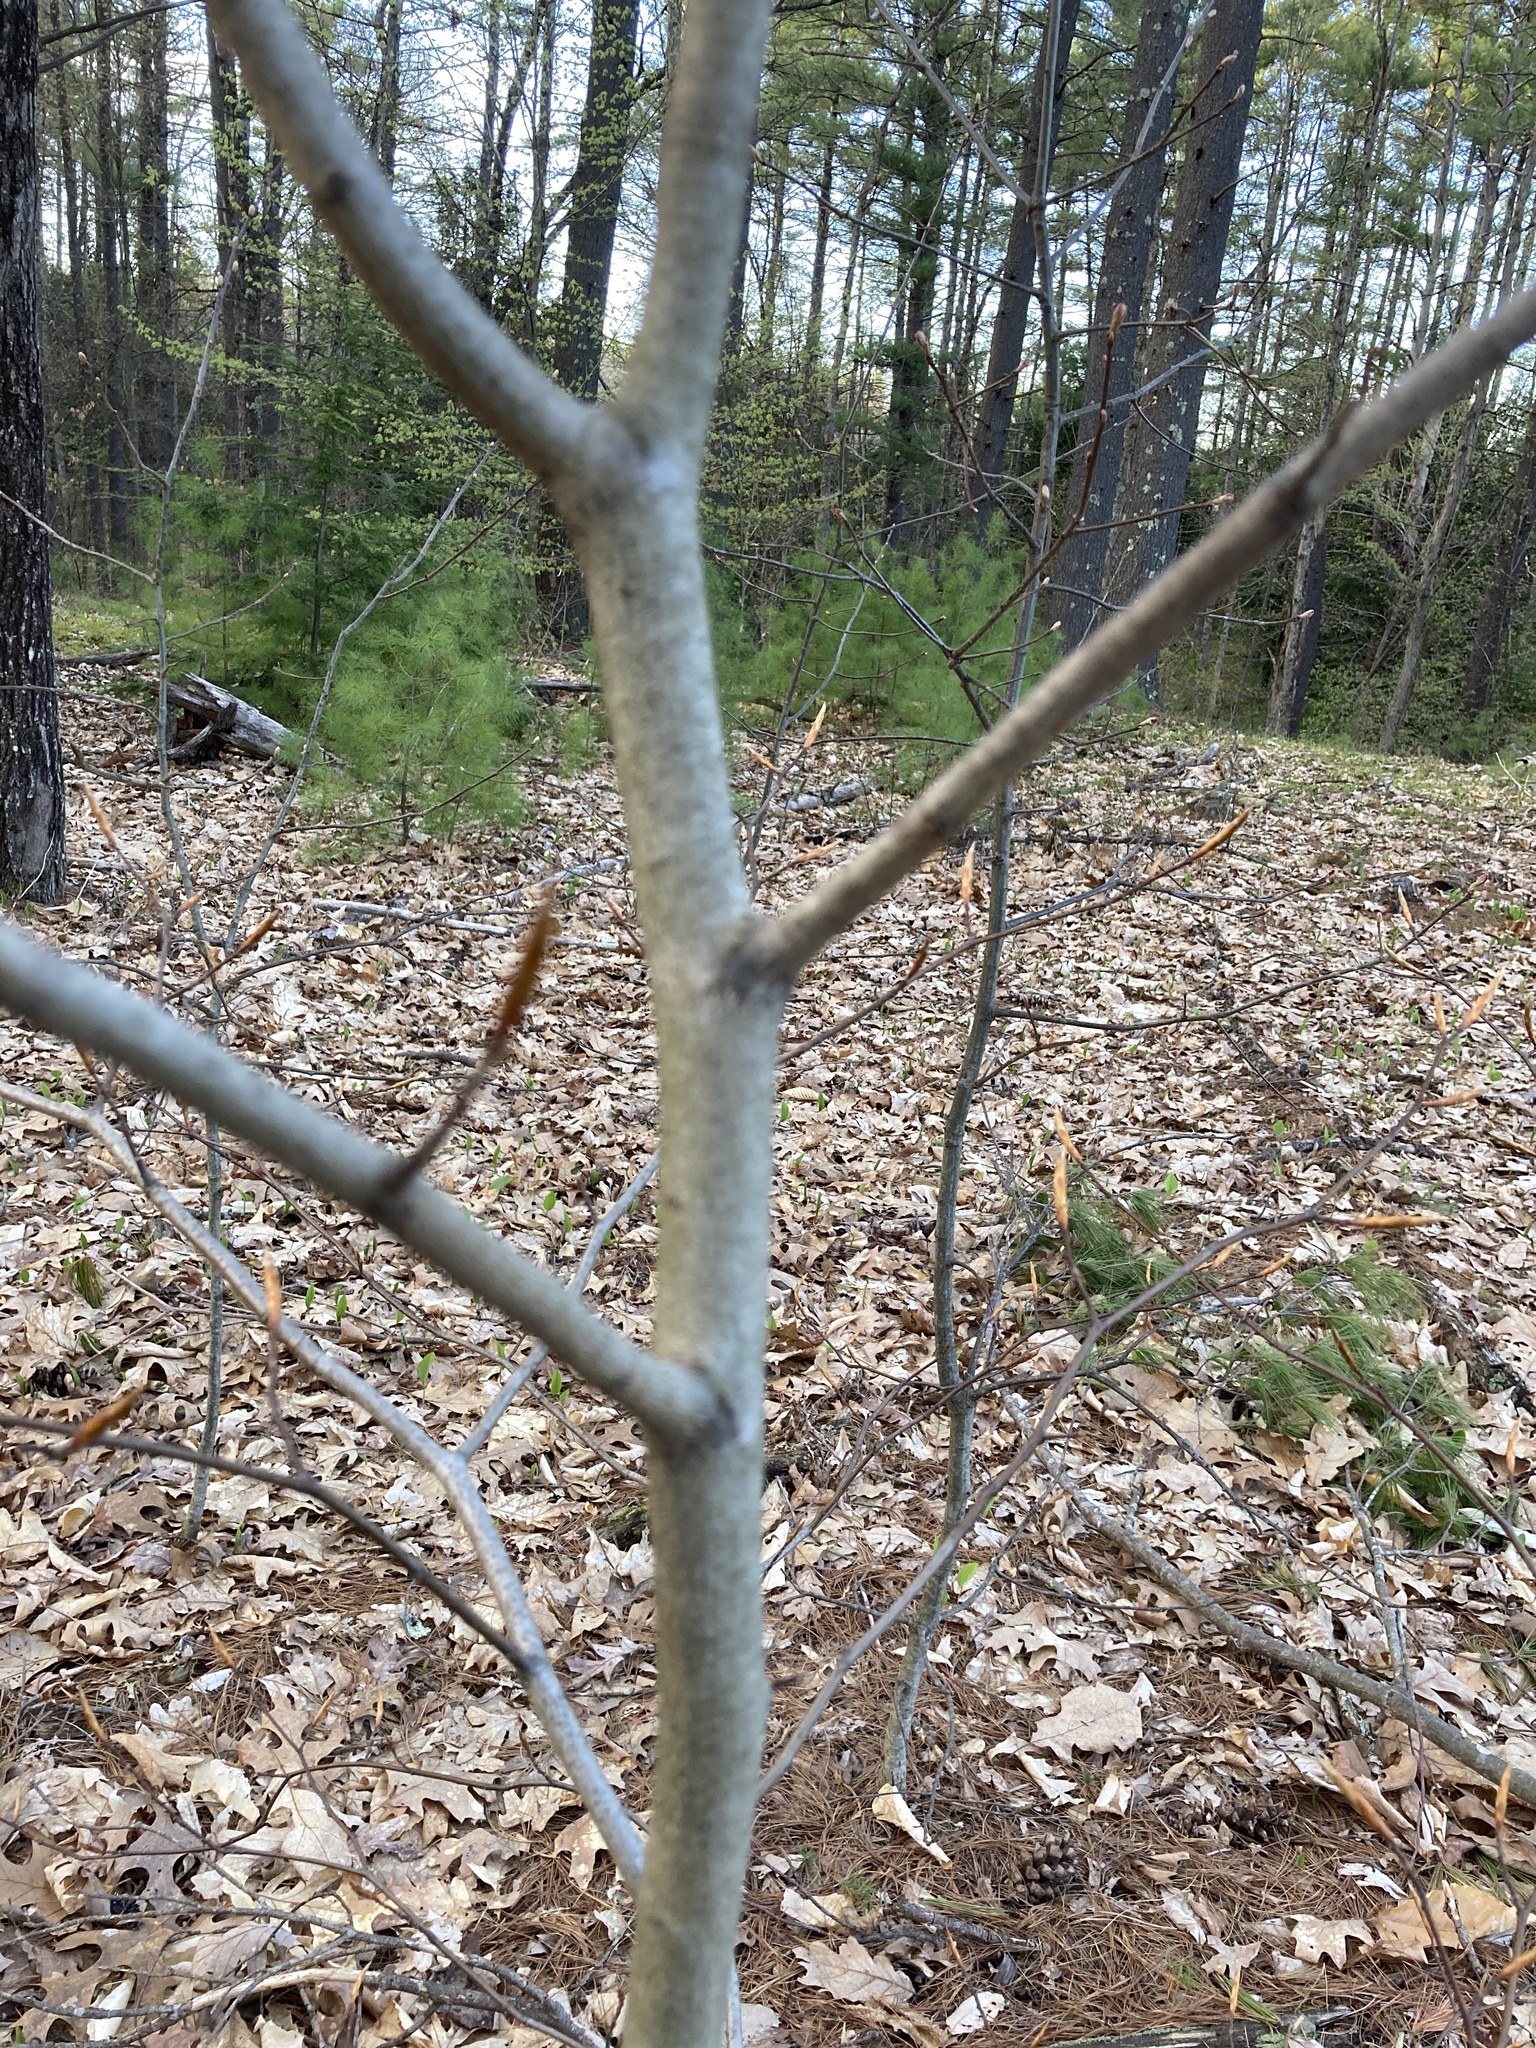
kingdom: Plantae
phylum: Tracheophyta
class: Magnoliopsida
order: Fagales
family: Fagaceae
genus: Fagus
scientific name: Fagus grandifolia
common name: American beech
